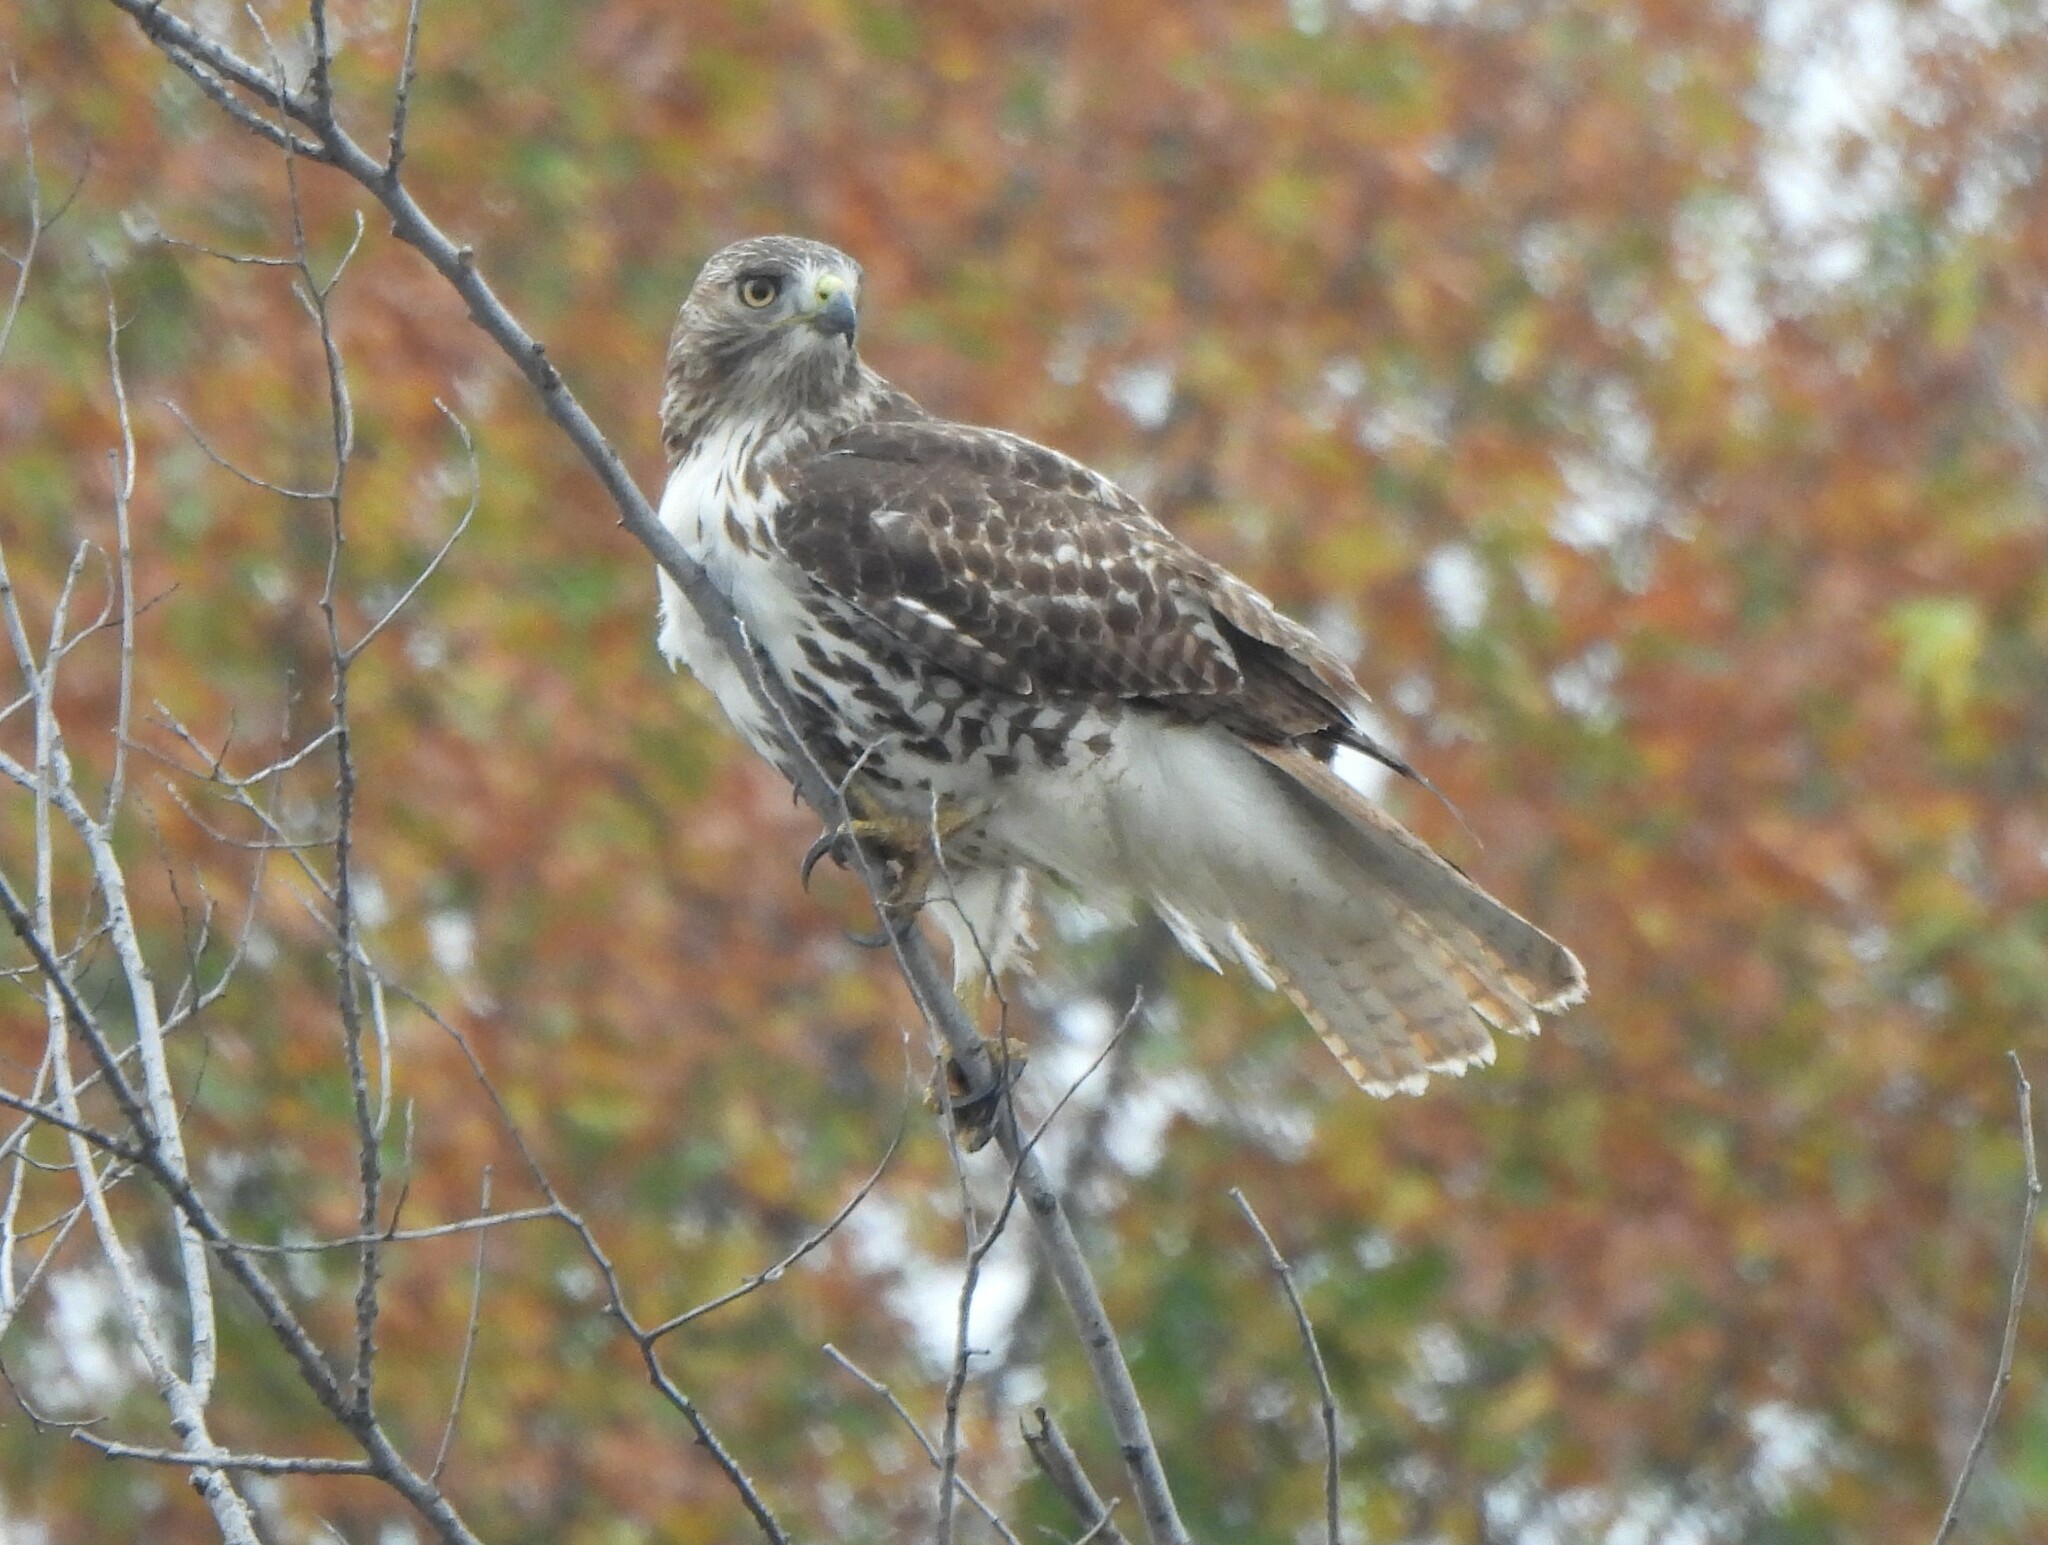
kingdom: Animalia
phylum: Chordata
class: Aves
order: Accipitriformes
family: Accipitridae
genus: Buteo
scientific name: Buteo jamaicensis
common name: Red-tailed hawk
